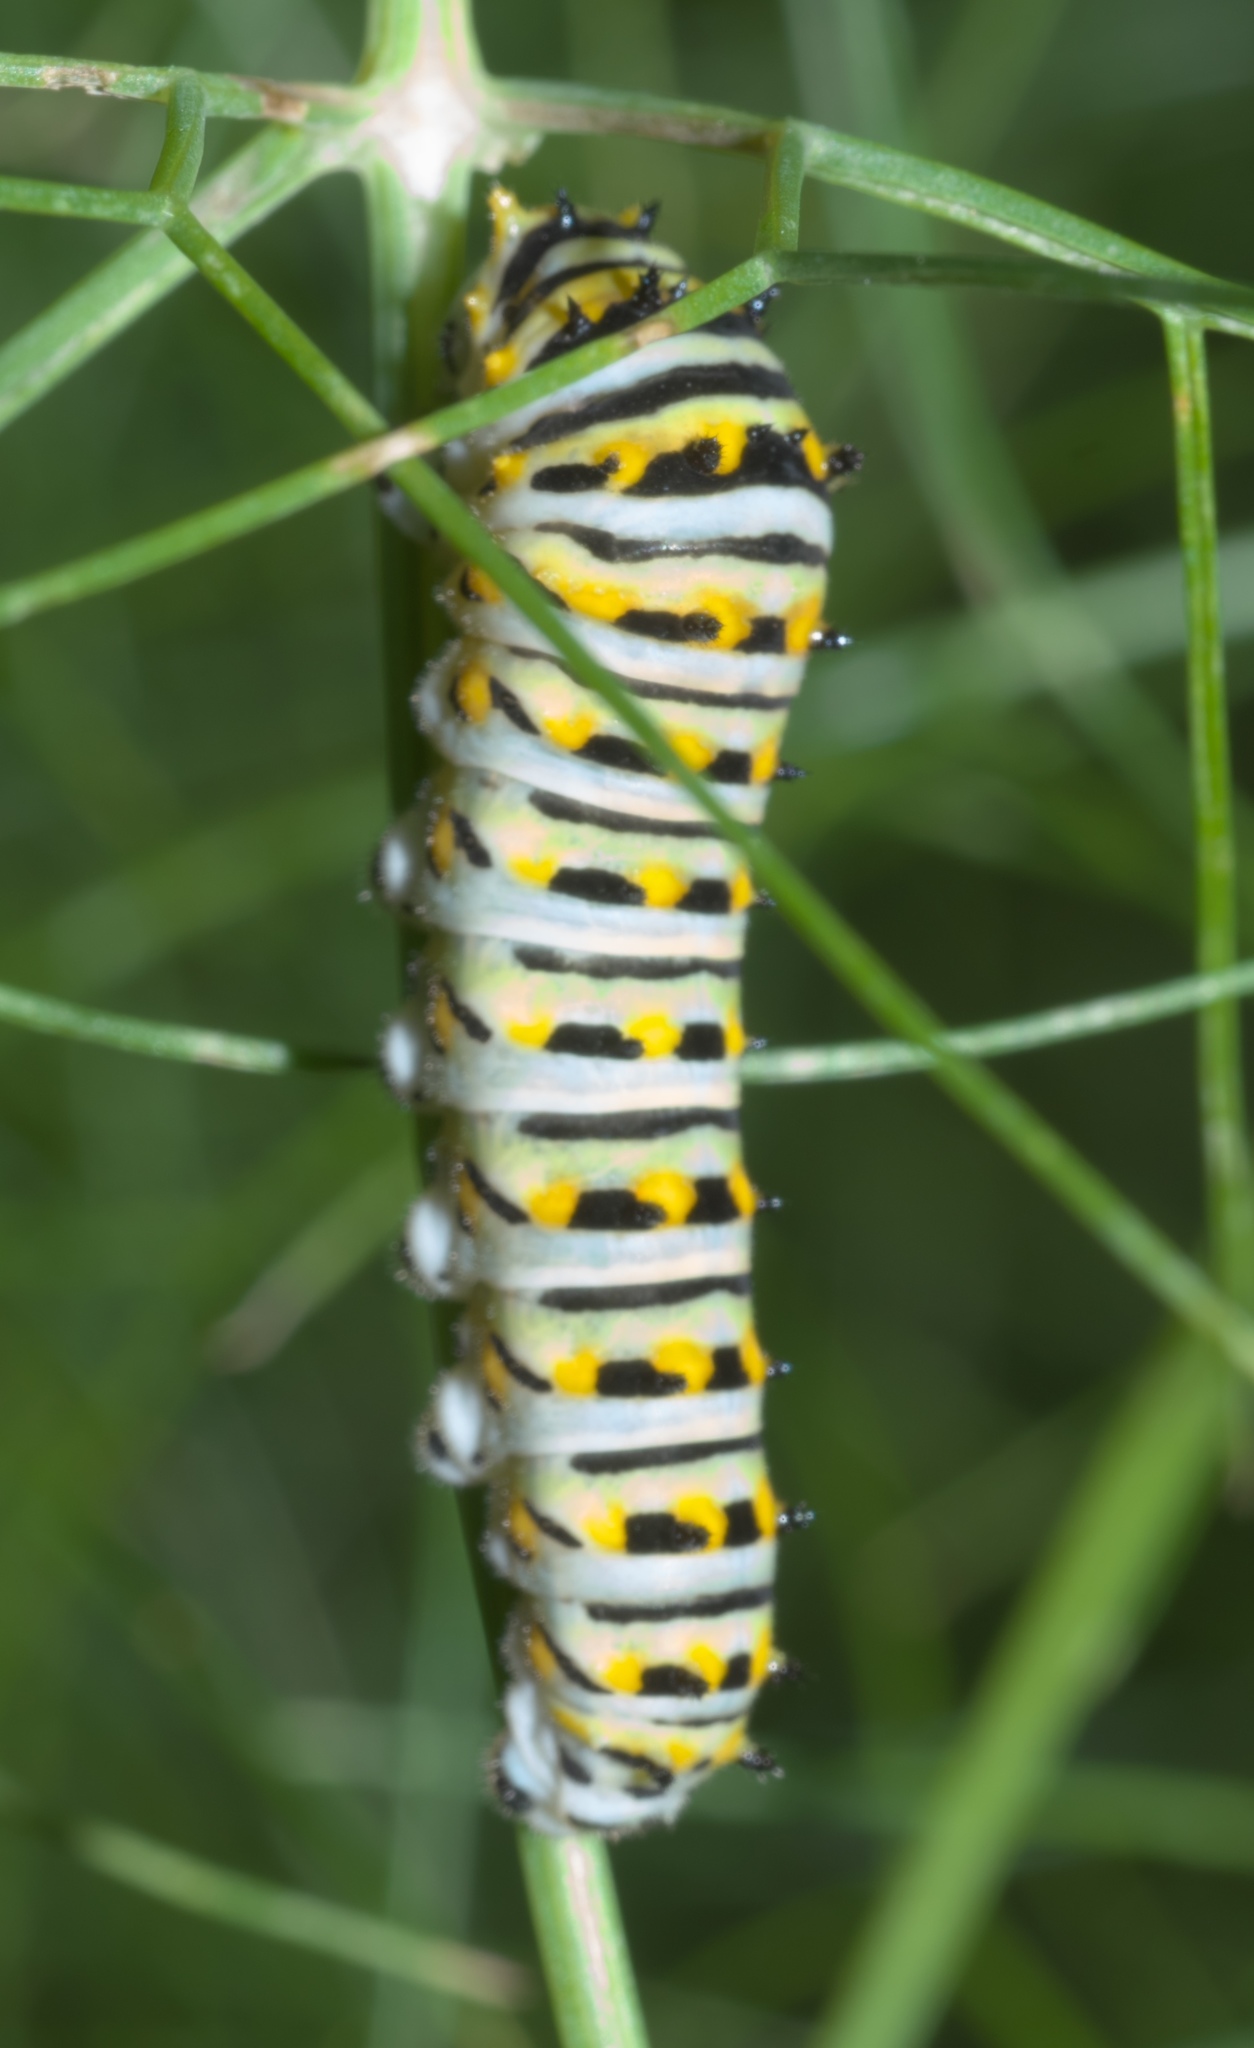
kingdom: Animalia
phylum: Arthropoda
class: Insecta
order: Lepidoptera
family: Papilionidae
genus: Papilio
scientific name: Papilio polyxenes
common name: Black swallowtail
